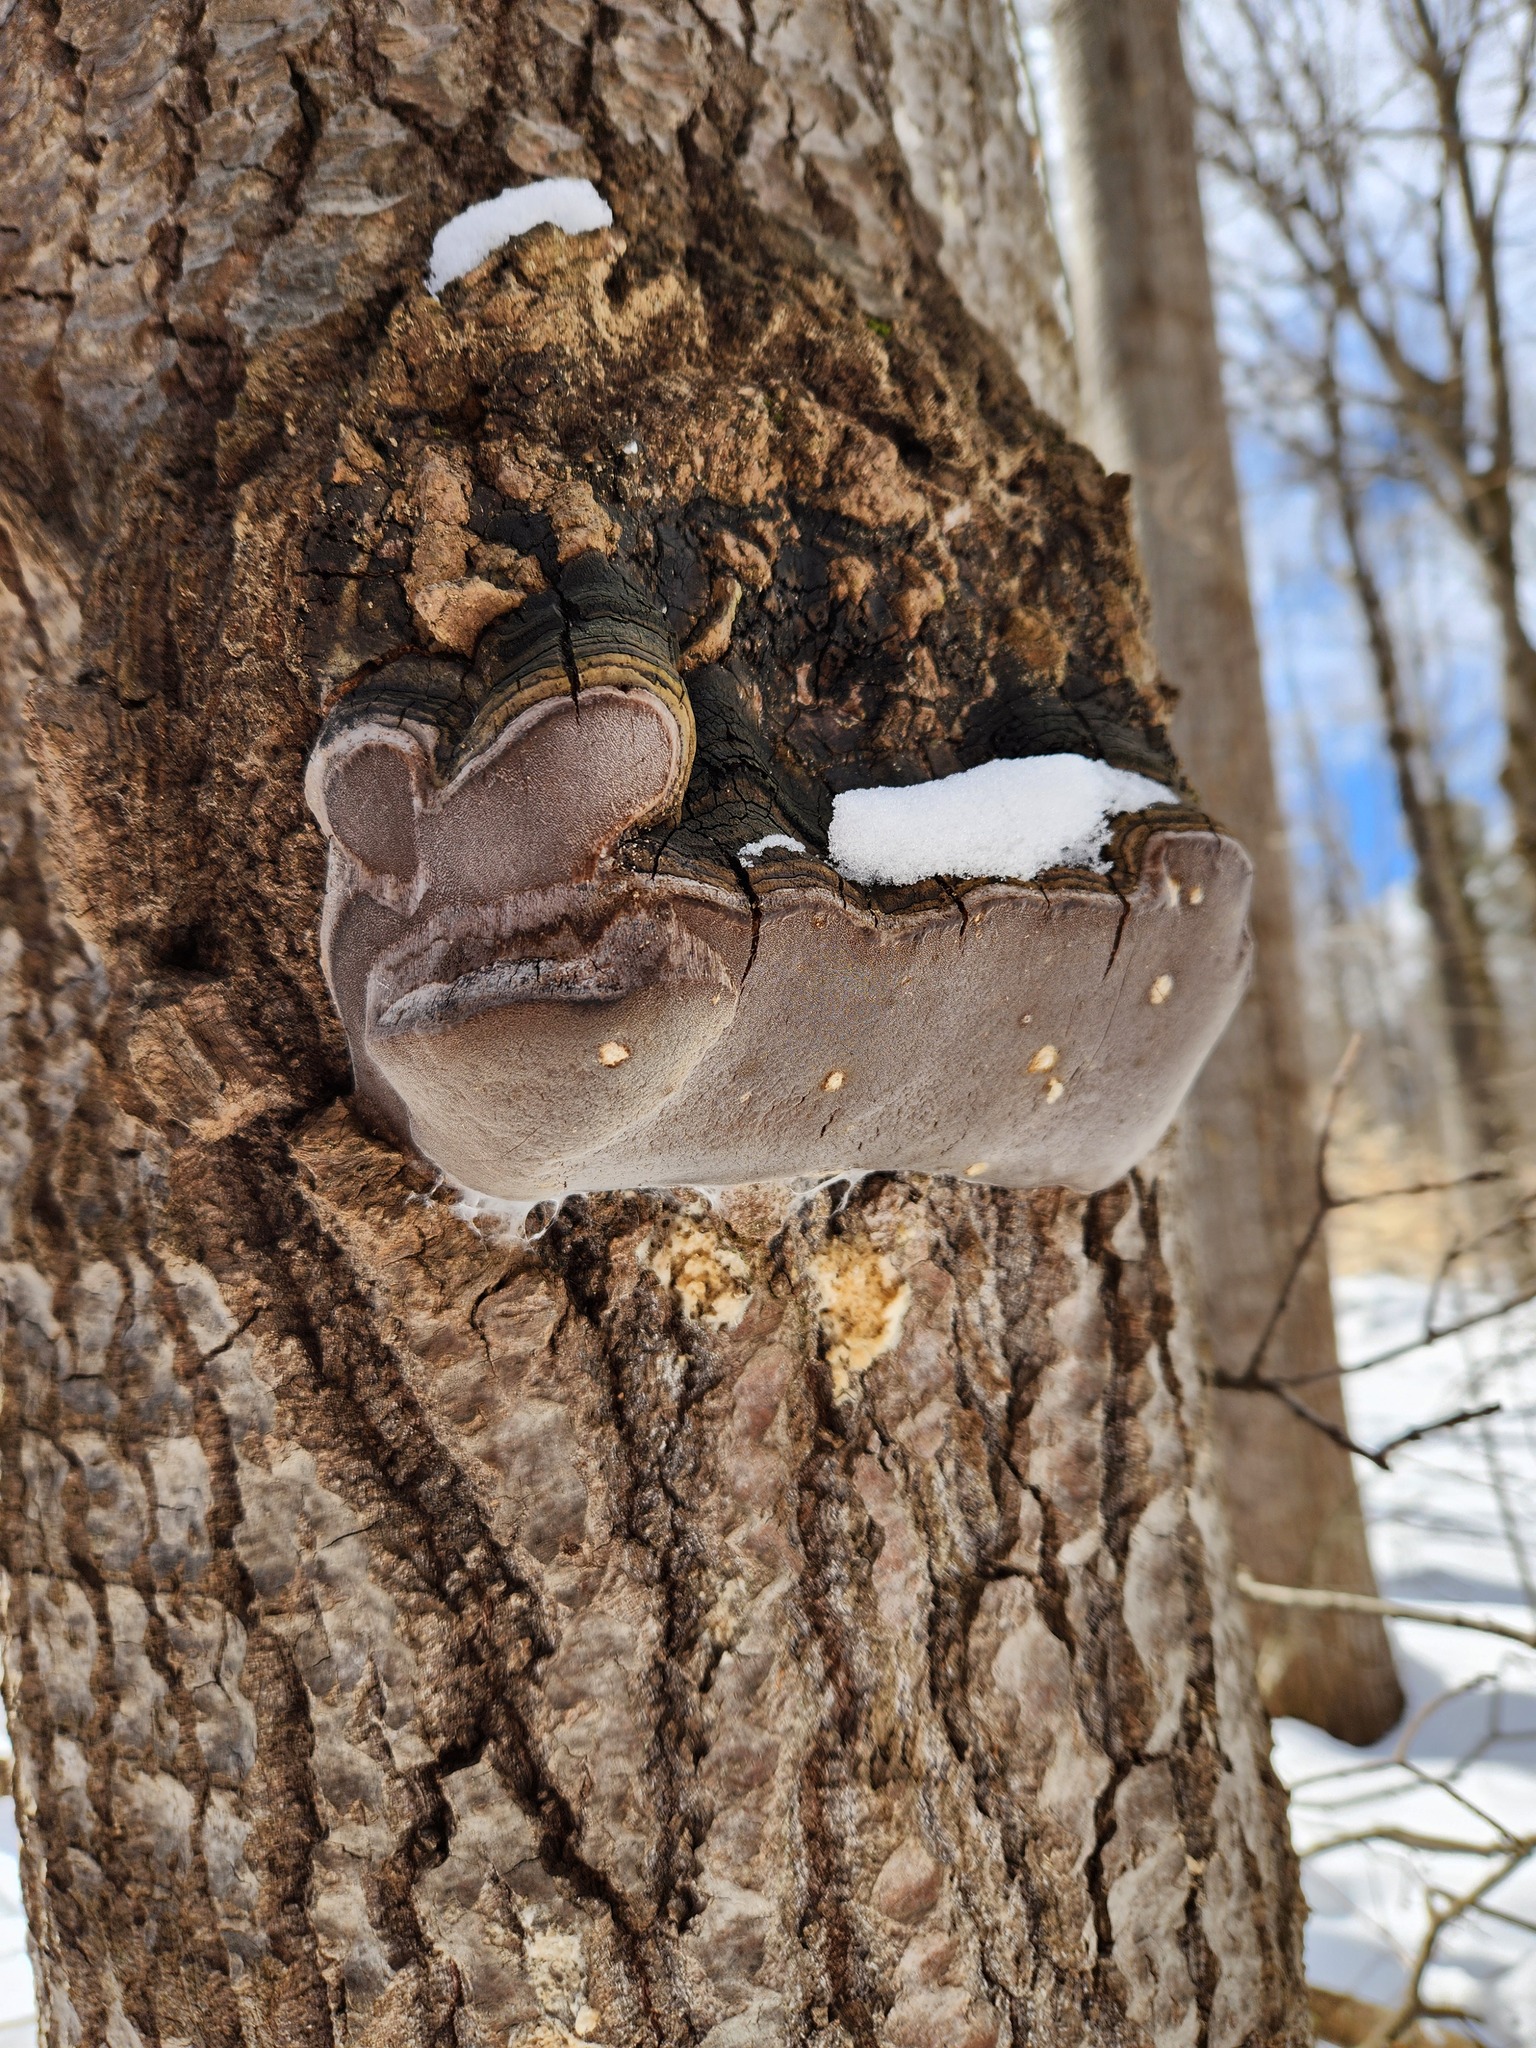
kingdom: Fungi
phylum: Basidiomycota
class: Agaricomycetes
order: Hymenochaetales
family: Hymenochaetaceae
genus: Phellinus
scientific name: Phellinus tremulae
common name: Aspen bracket
